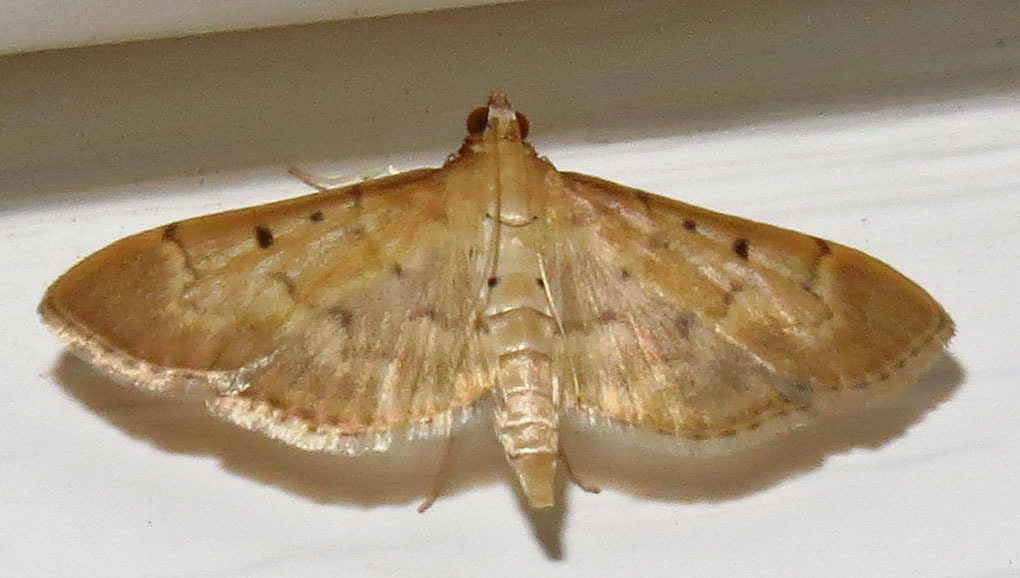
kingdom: Animalia
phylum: Arthropoda
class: Insecta
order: Lepidoptera
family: Crambidae
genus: Herpetogramma
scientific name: Herpetogramma bipunctalis
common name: Southern beet webworm
